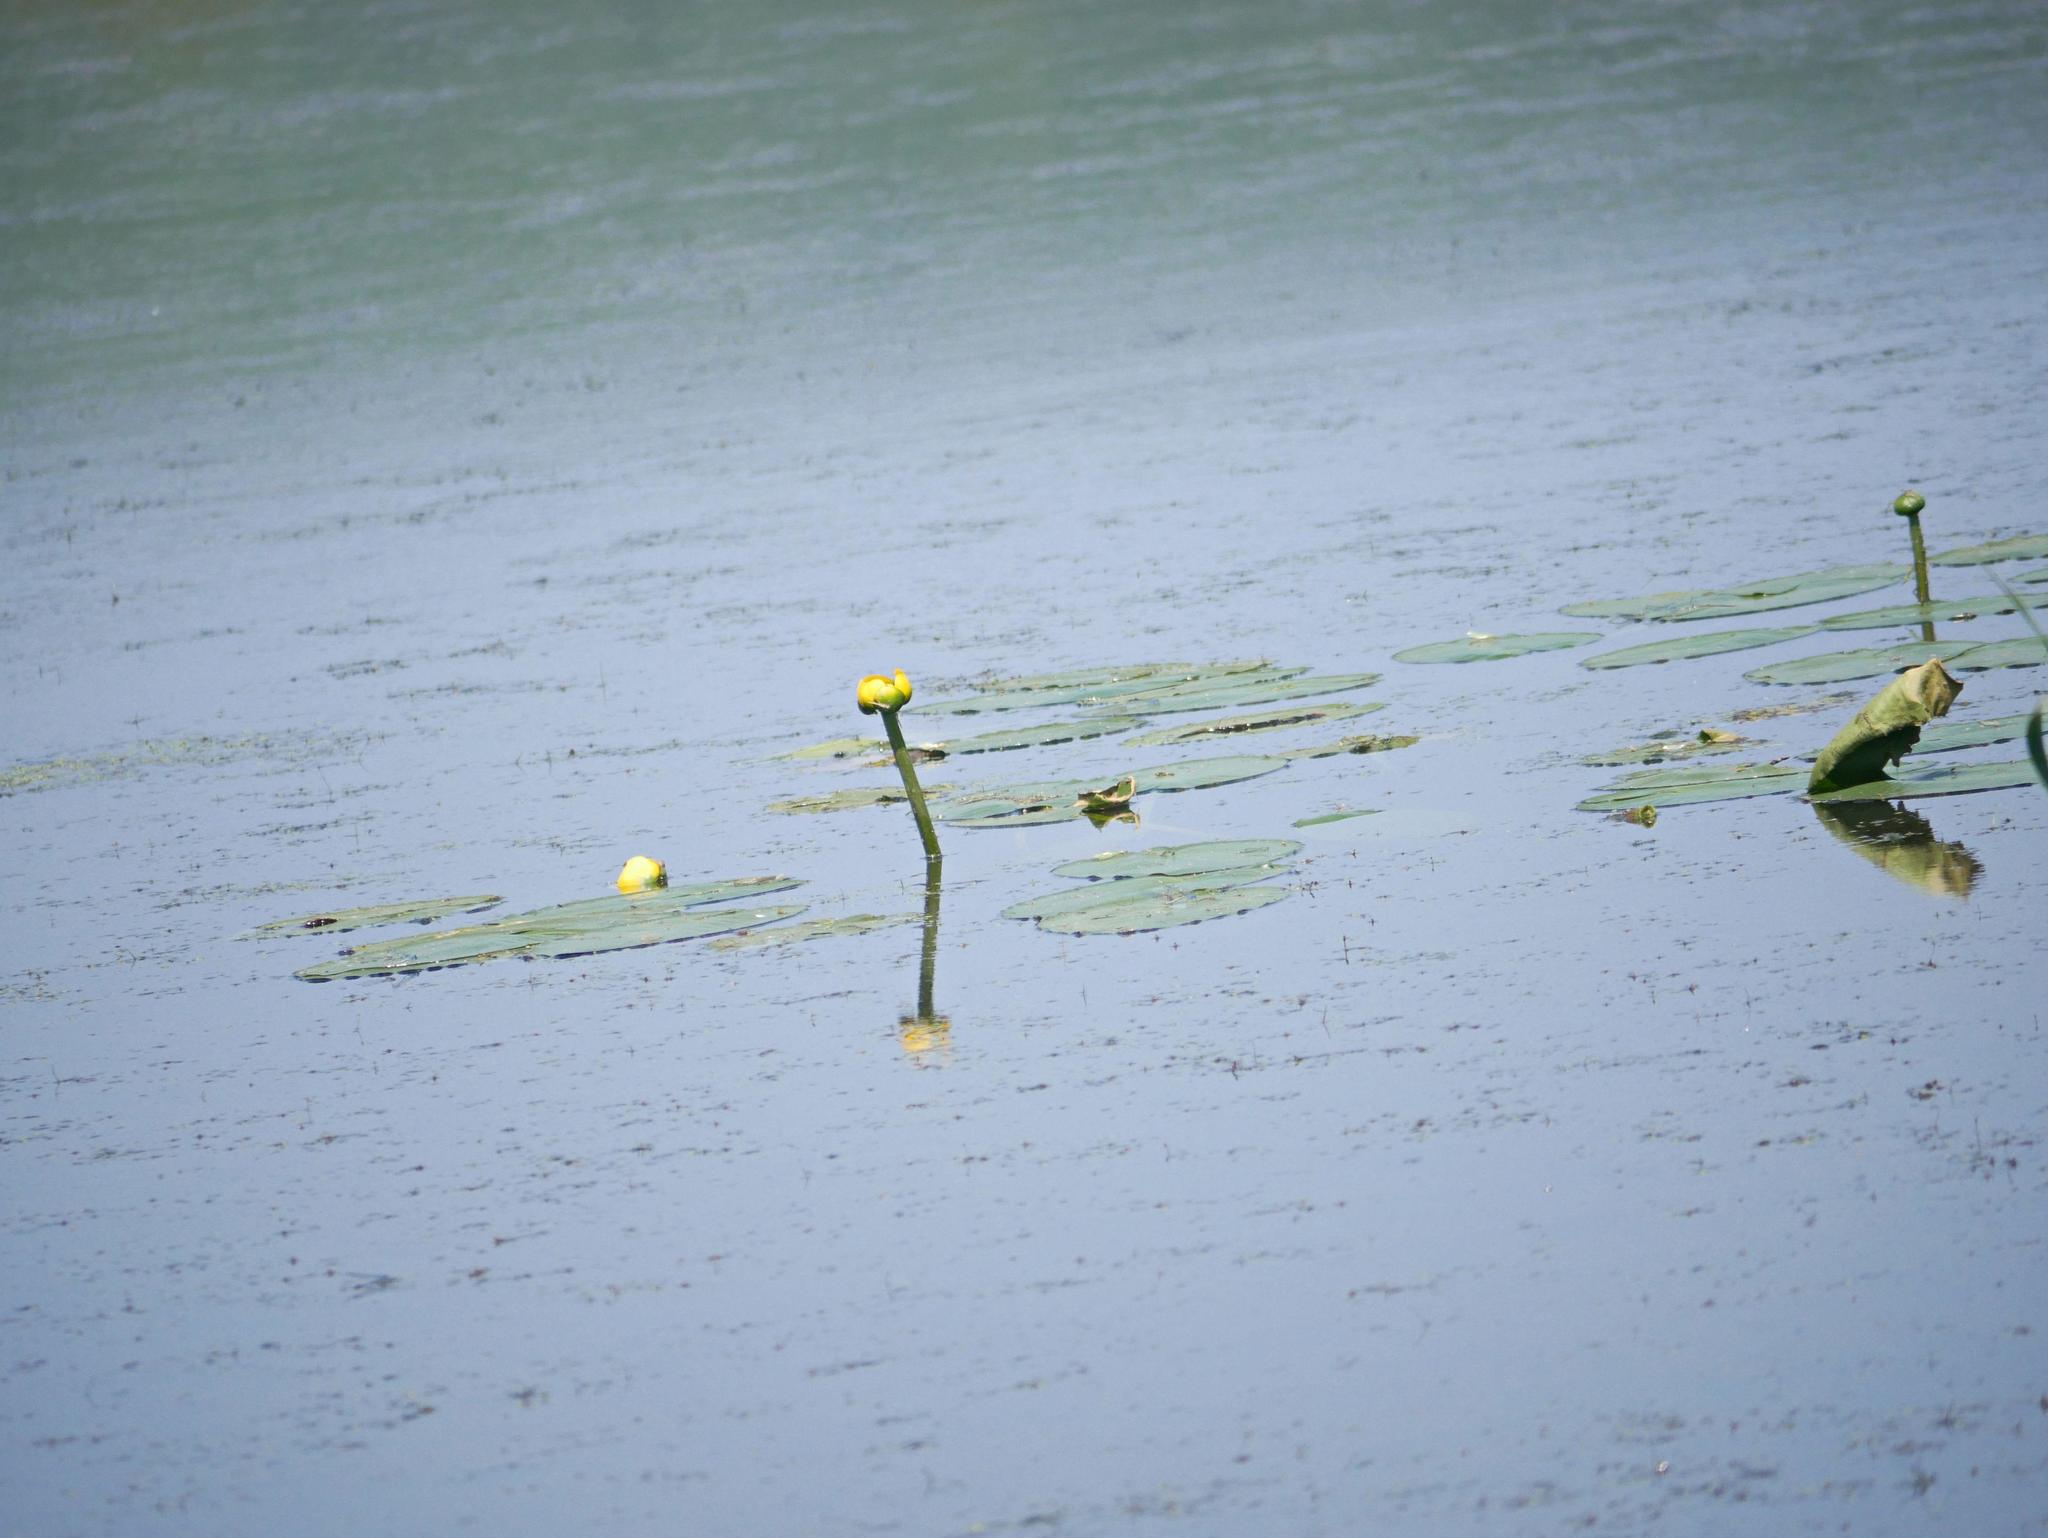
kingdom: Plantae
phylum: Tracheophyta
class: Magnoliopsida
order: Nymphaeales
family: Nymphaeaceae
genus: Nuphar
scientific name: Nuphar variegata
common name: Beaver-root
